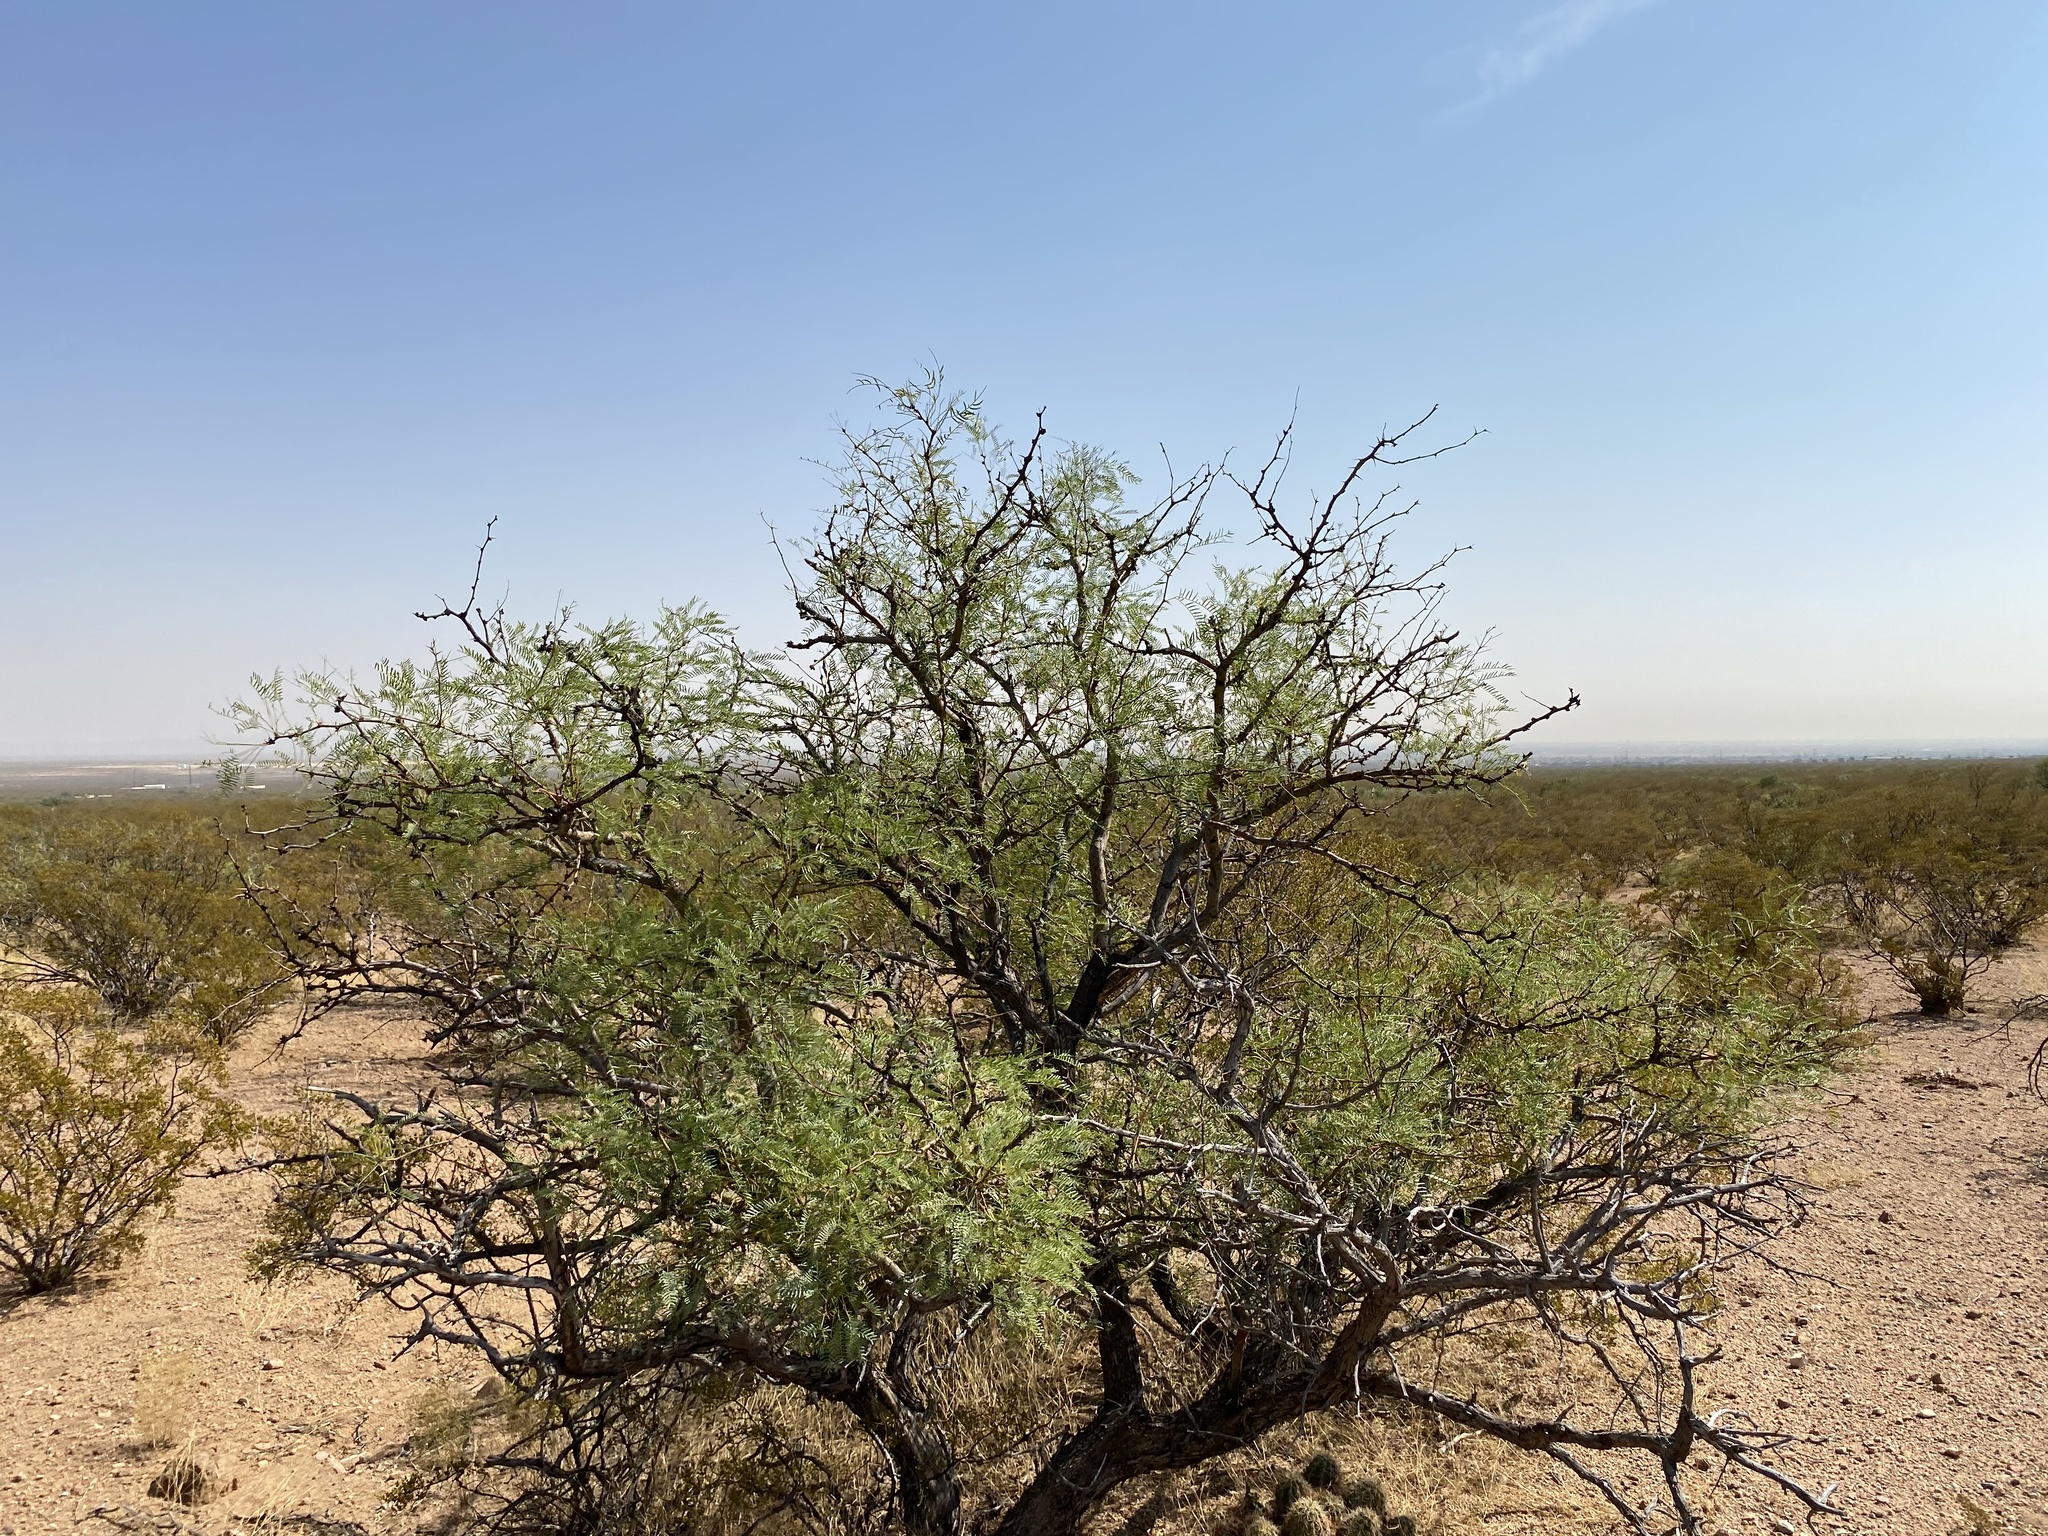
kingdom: Plantae
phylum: Tracheophyta
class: Magnoliopsida
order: Fabales
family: Fabaceae
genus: Prosopis
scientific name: Prosopis glandulosa
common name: Honey mesquite
